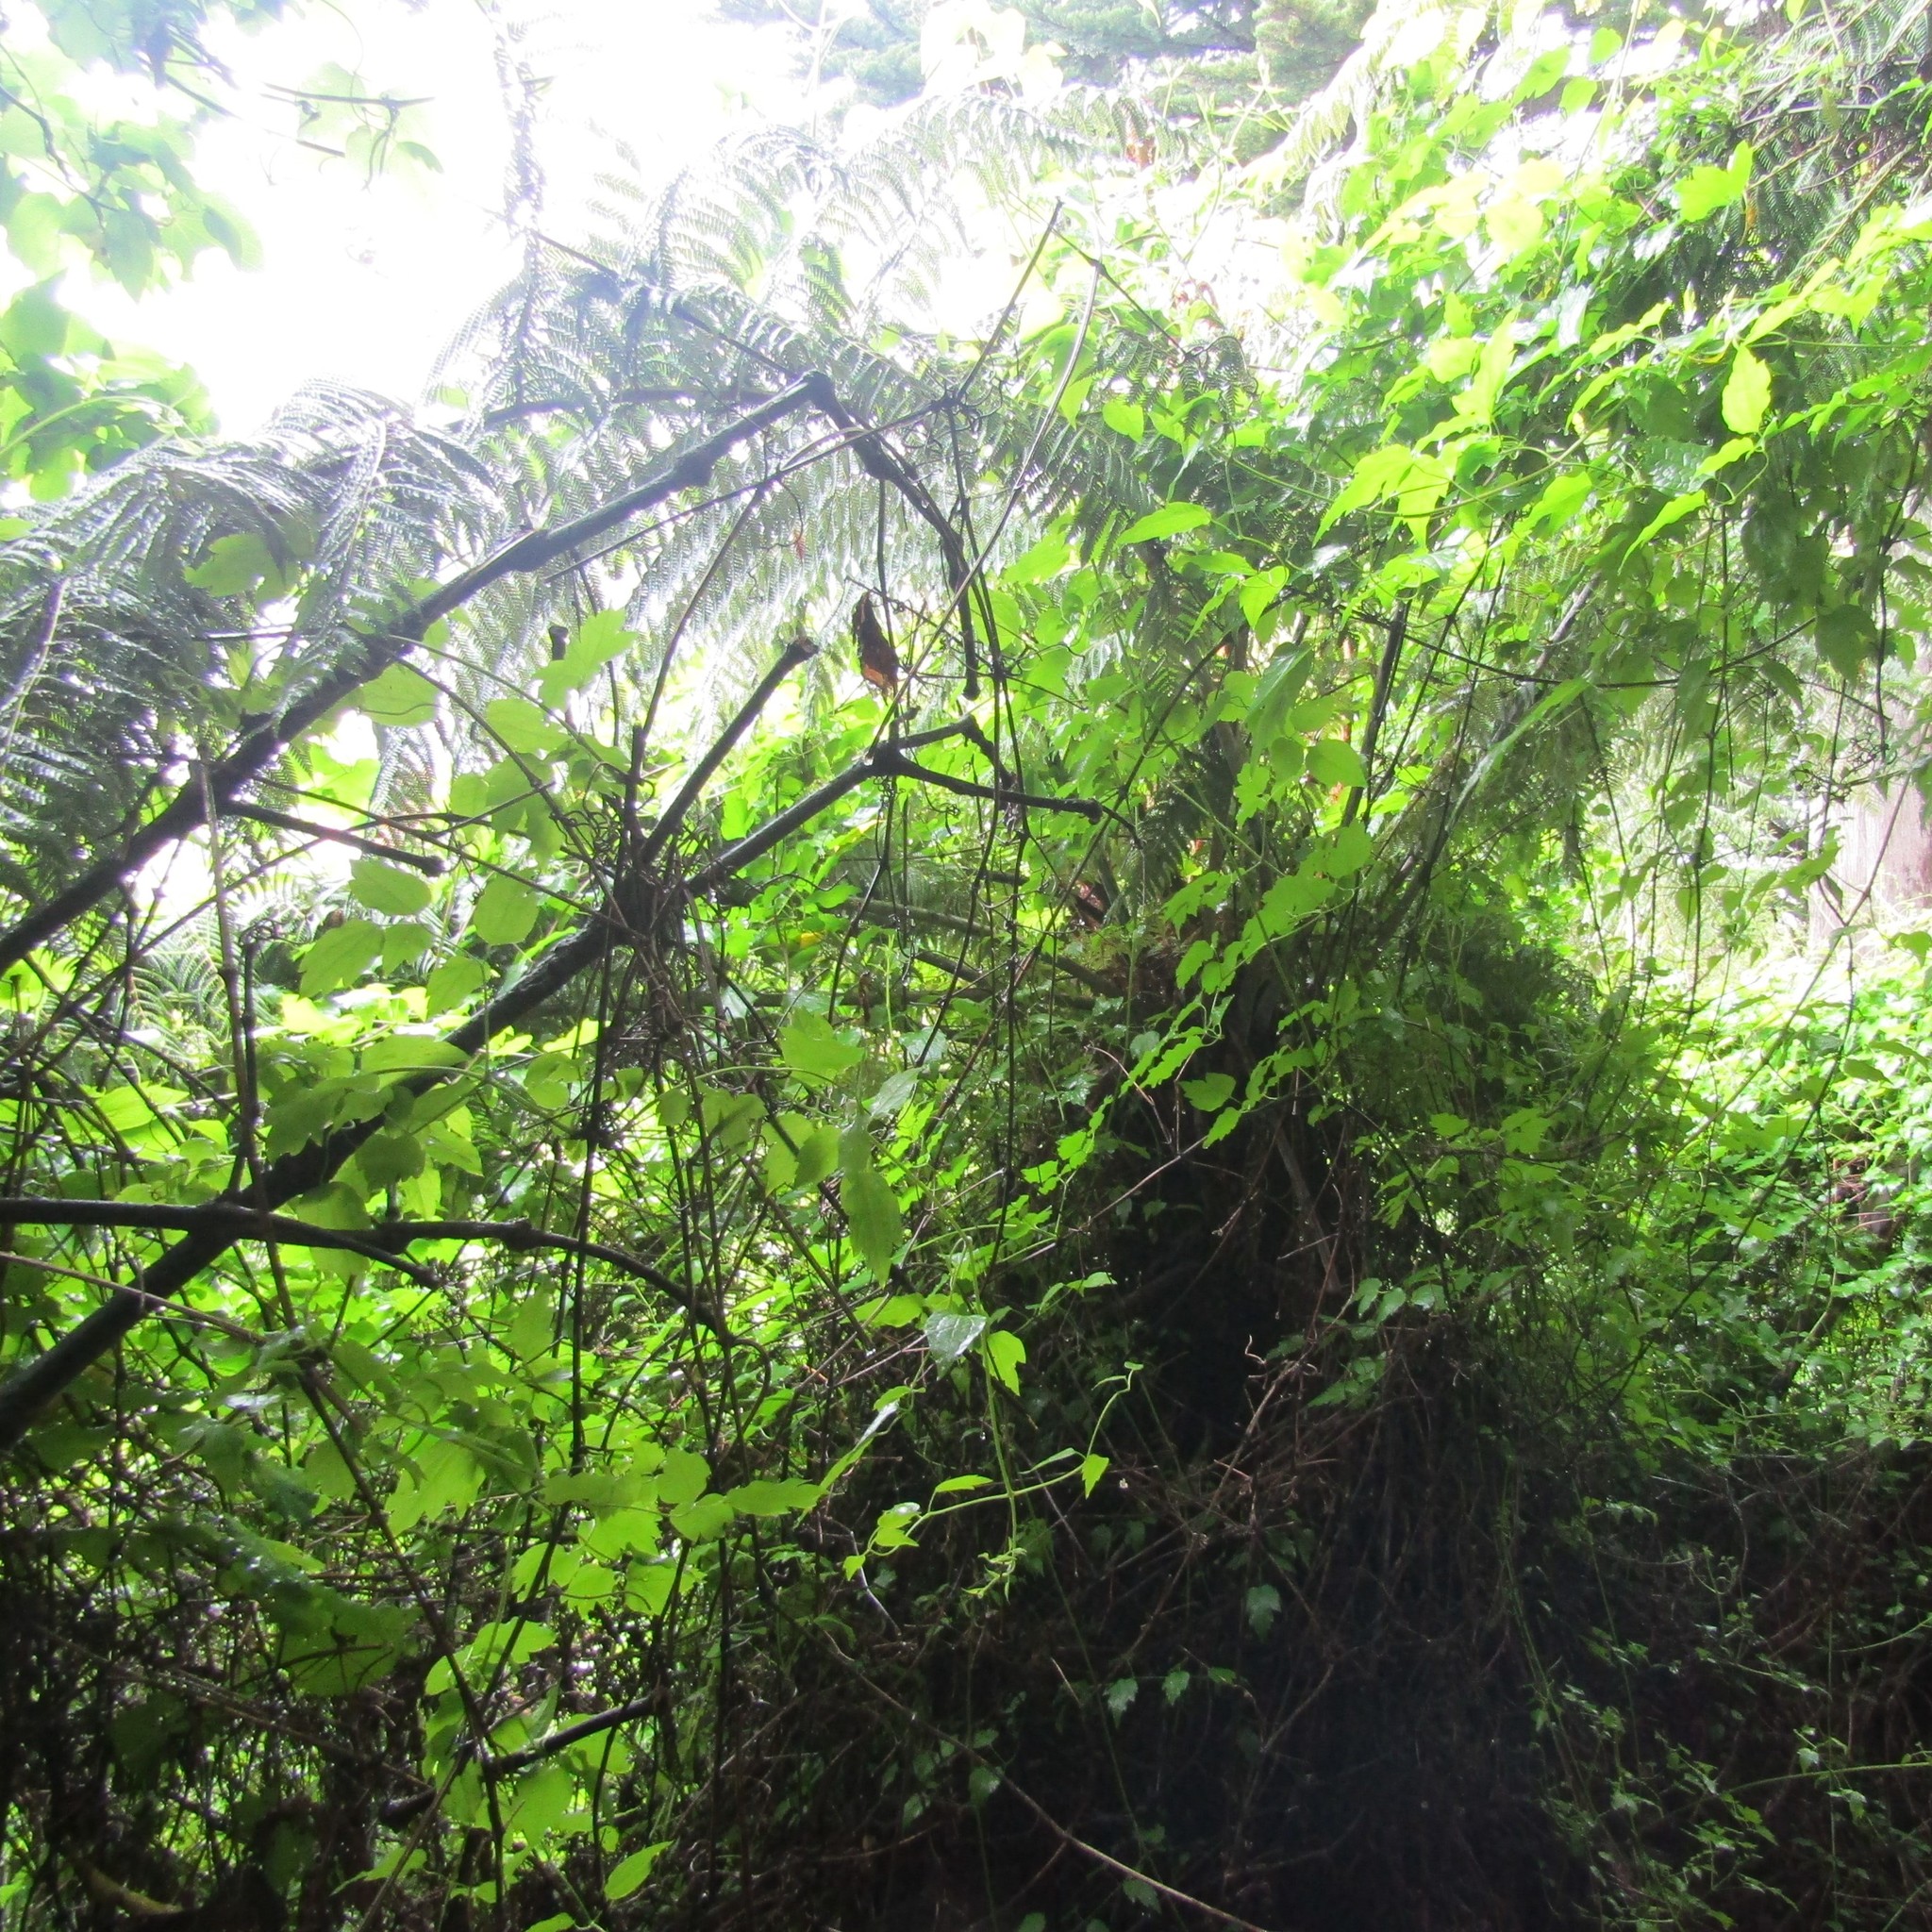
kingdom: Plantae
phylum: Tracheophyta
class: Polypodiopsida
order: Cyatheales
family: Cyatheaceae
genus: Alsophila
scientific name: Alsophila dealbata
